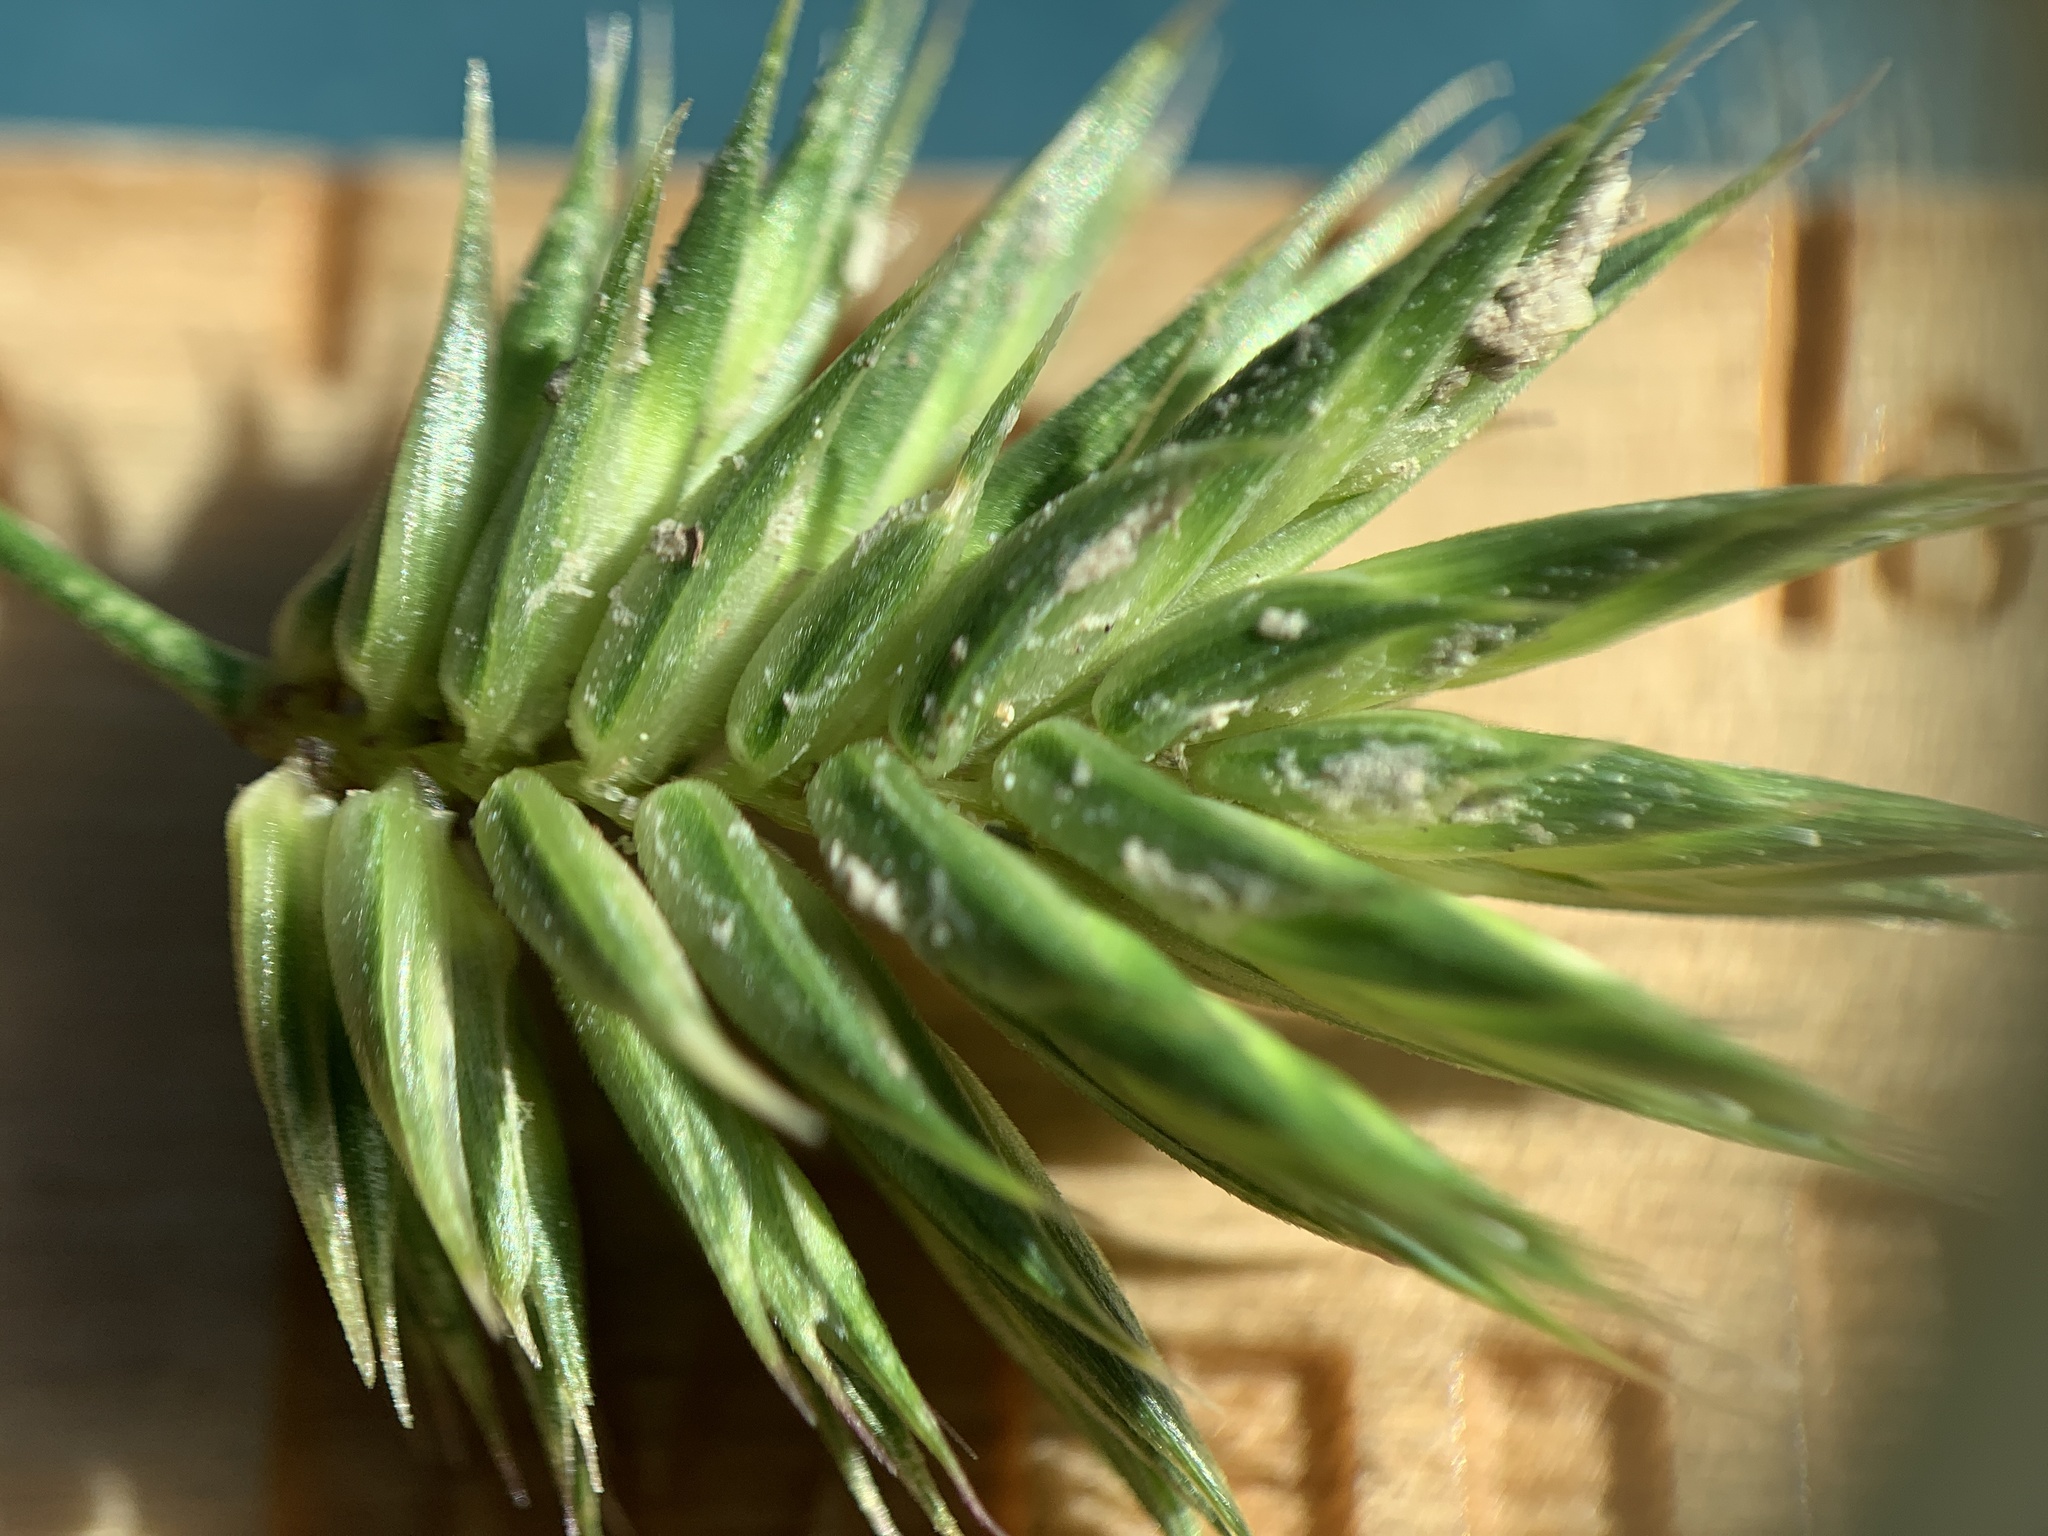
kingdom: Plantae
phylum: Tracheophyta
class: Liliopsida
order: Poales
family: Poaceae
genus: Eremopyrum
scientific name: Eremopyrum triticeum
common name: Annual wheatgrass
